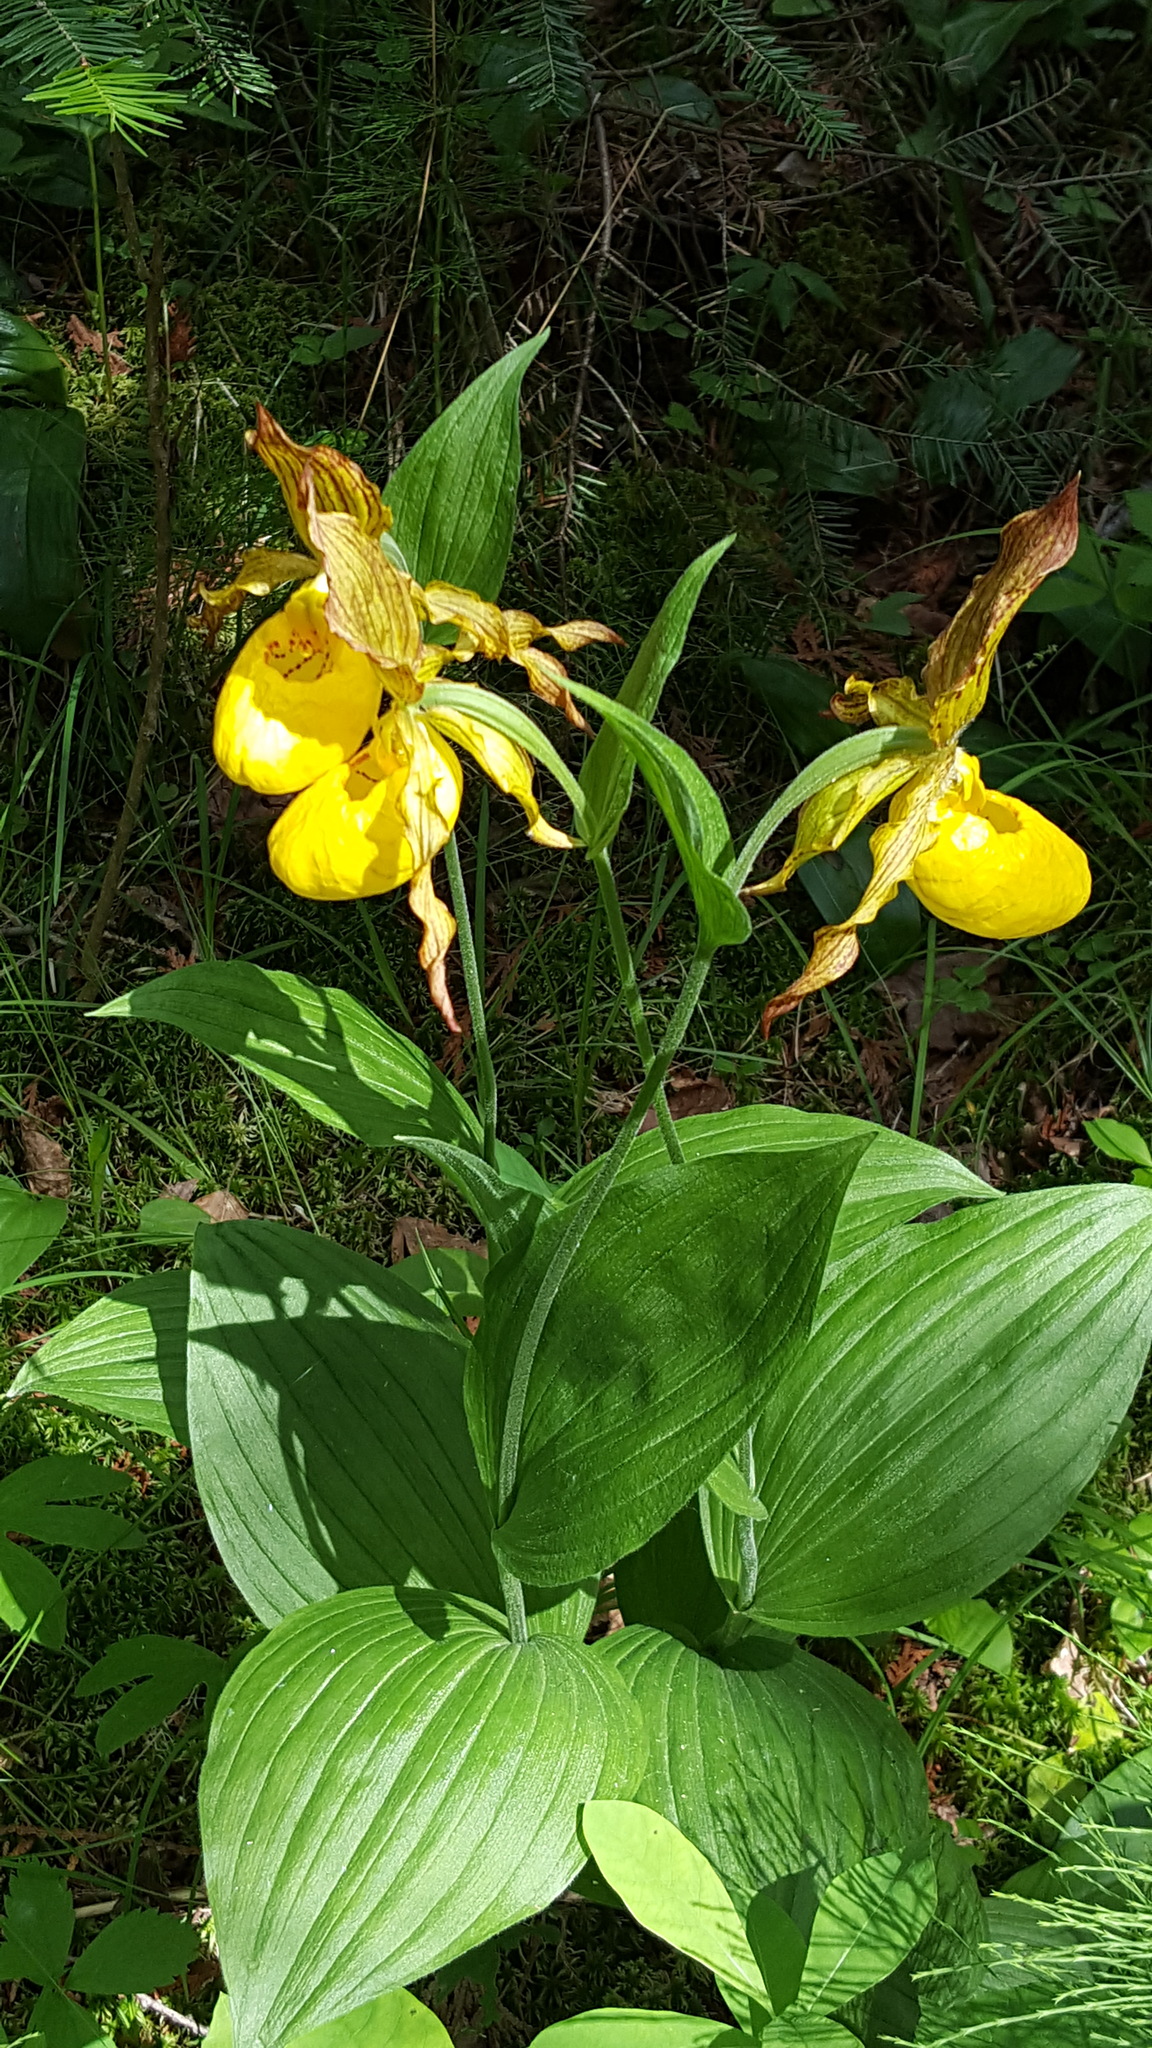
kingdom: Plantae
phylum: Tracheophyta
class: Liliopsida
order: Asparagales
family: Orchidaceae
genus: Cypripedium
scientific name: Cypripedium parviflorum
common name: American yellow lady's-slipper
